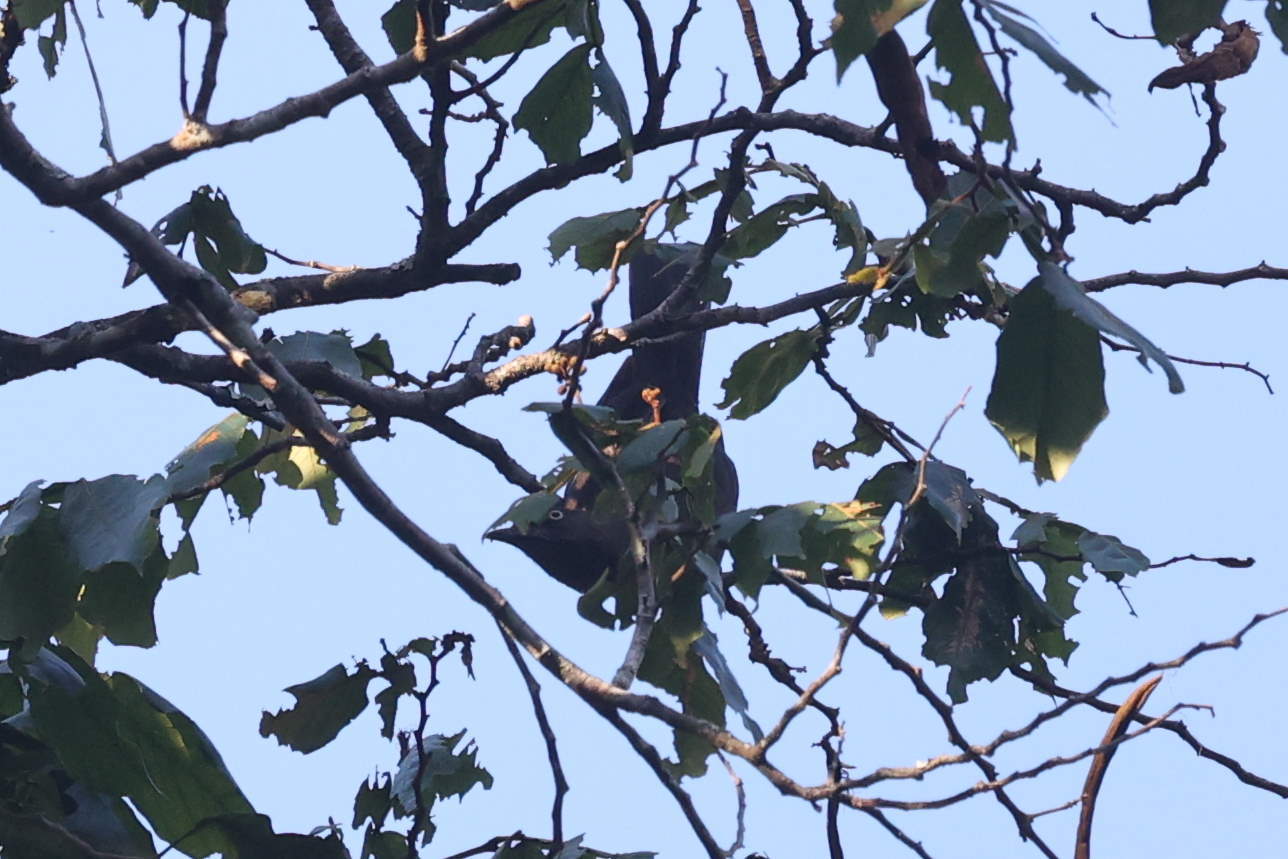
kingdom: Animalia
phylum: Chordata
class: Aves
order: Passeriformes
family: Mimidae
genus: Allenia
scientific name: Allenia fusca
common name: Scaly-breasted thrasher
